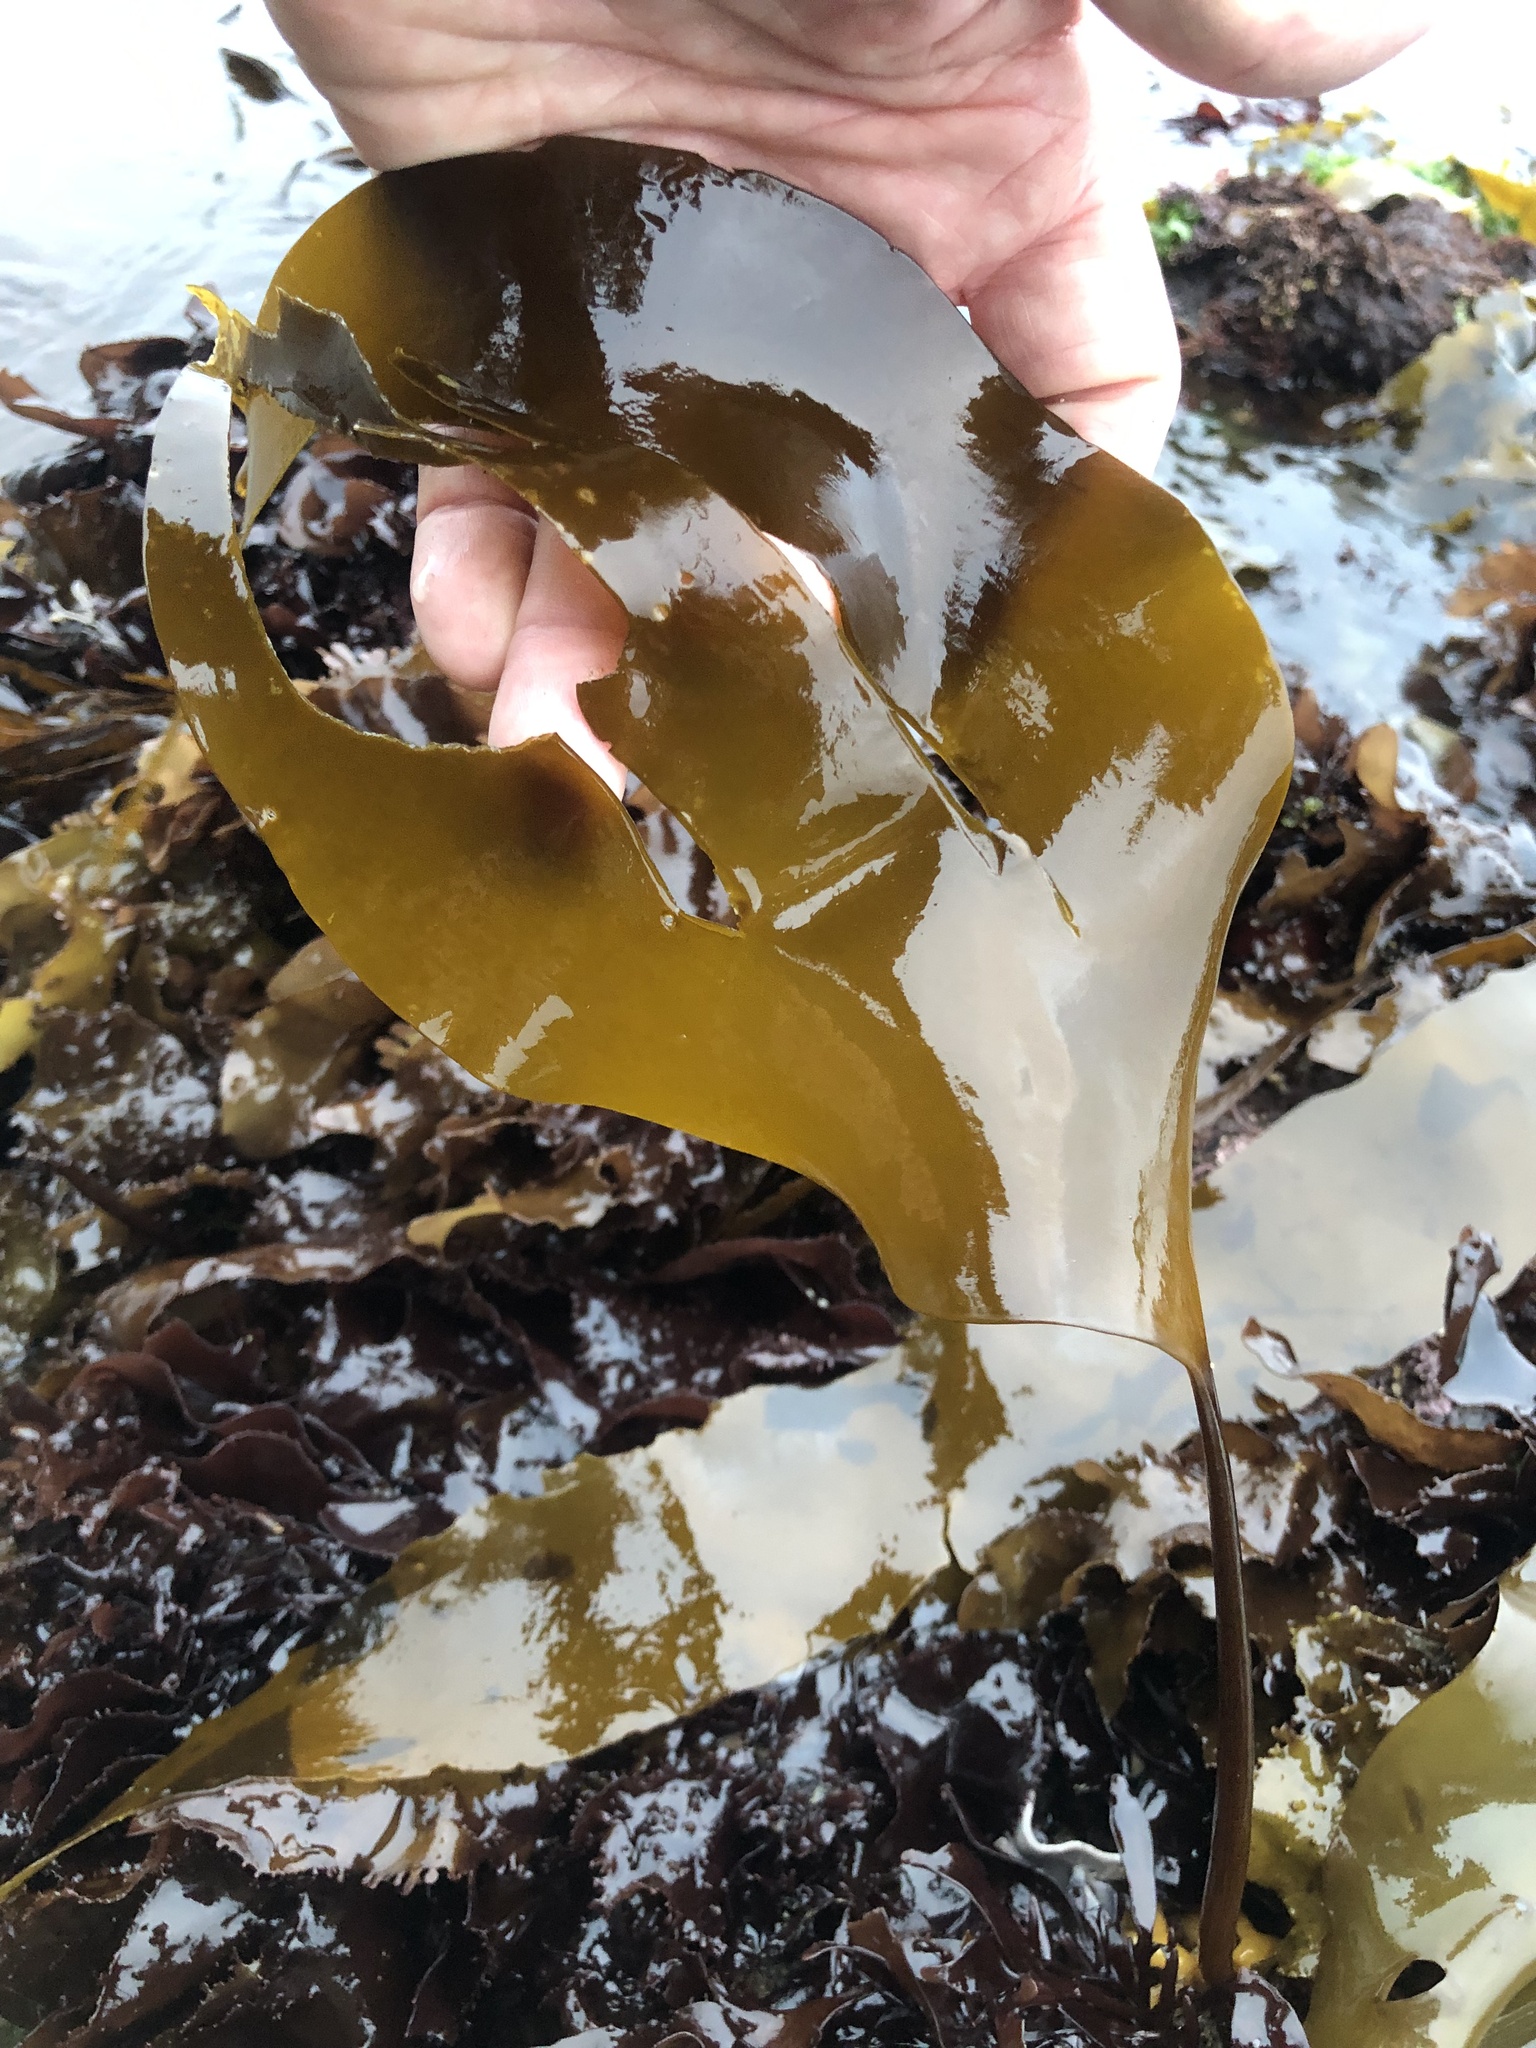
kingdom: Chromista
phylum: Ochrophyta
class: Phaeophyceae
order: Laminariales
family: Laminariaceae
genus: Laminaria
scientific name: Laminaria setchellii
